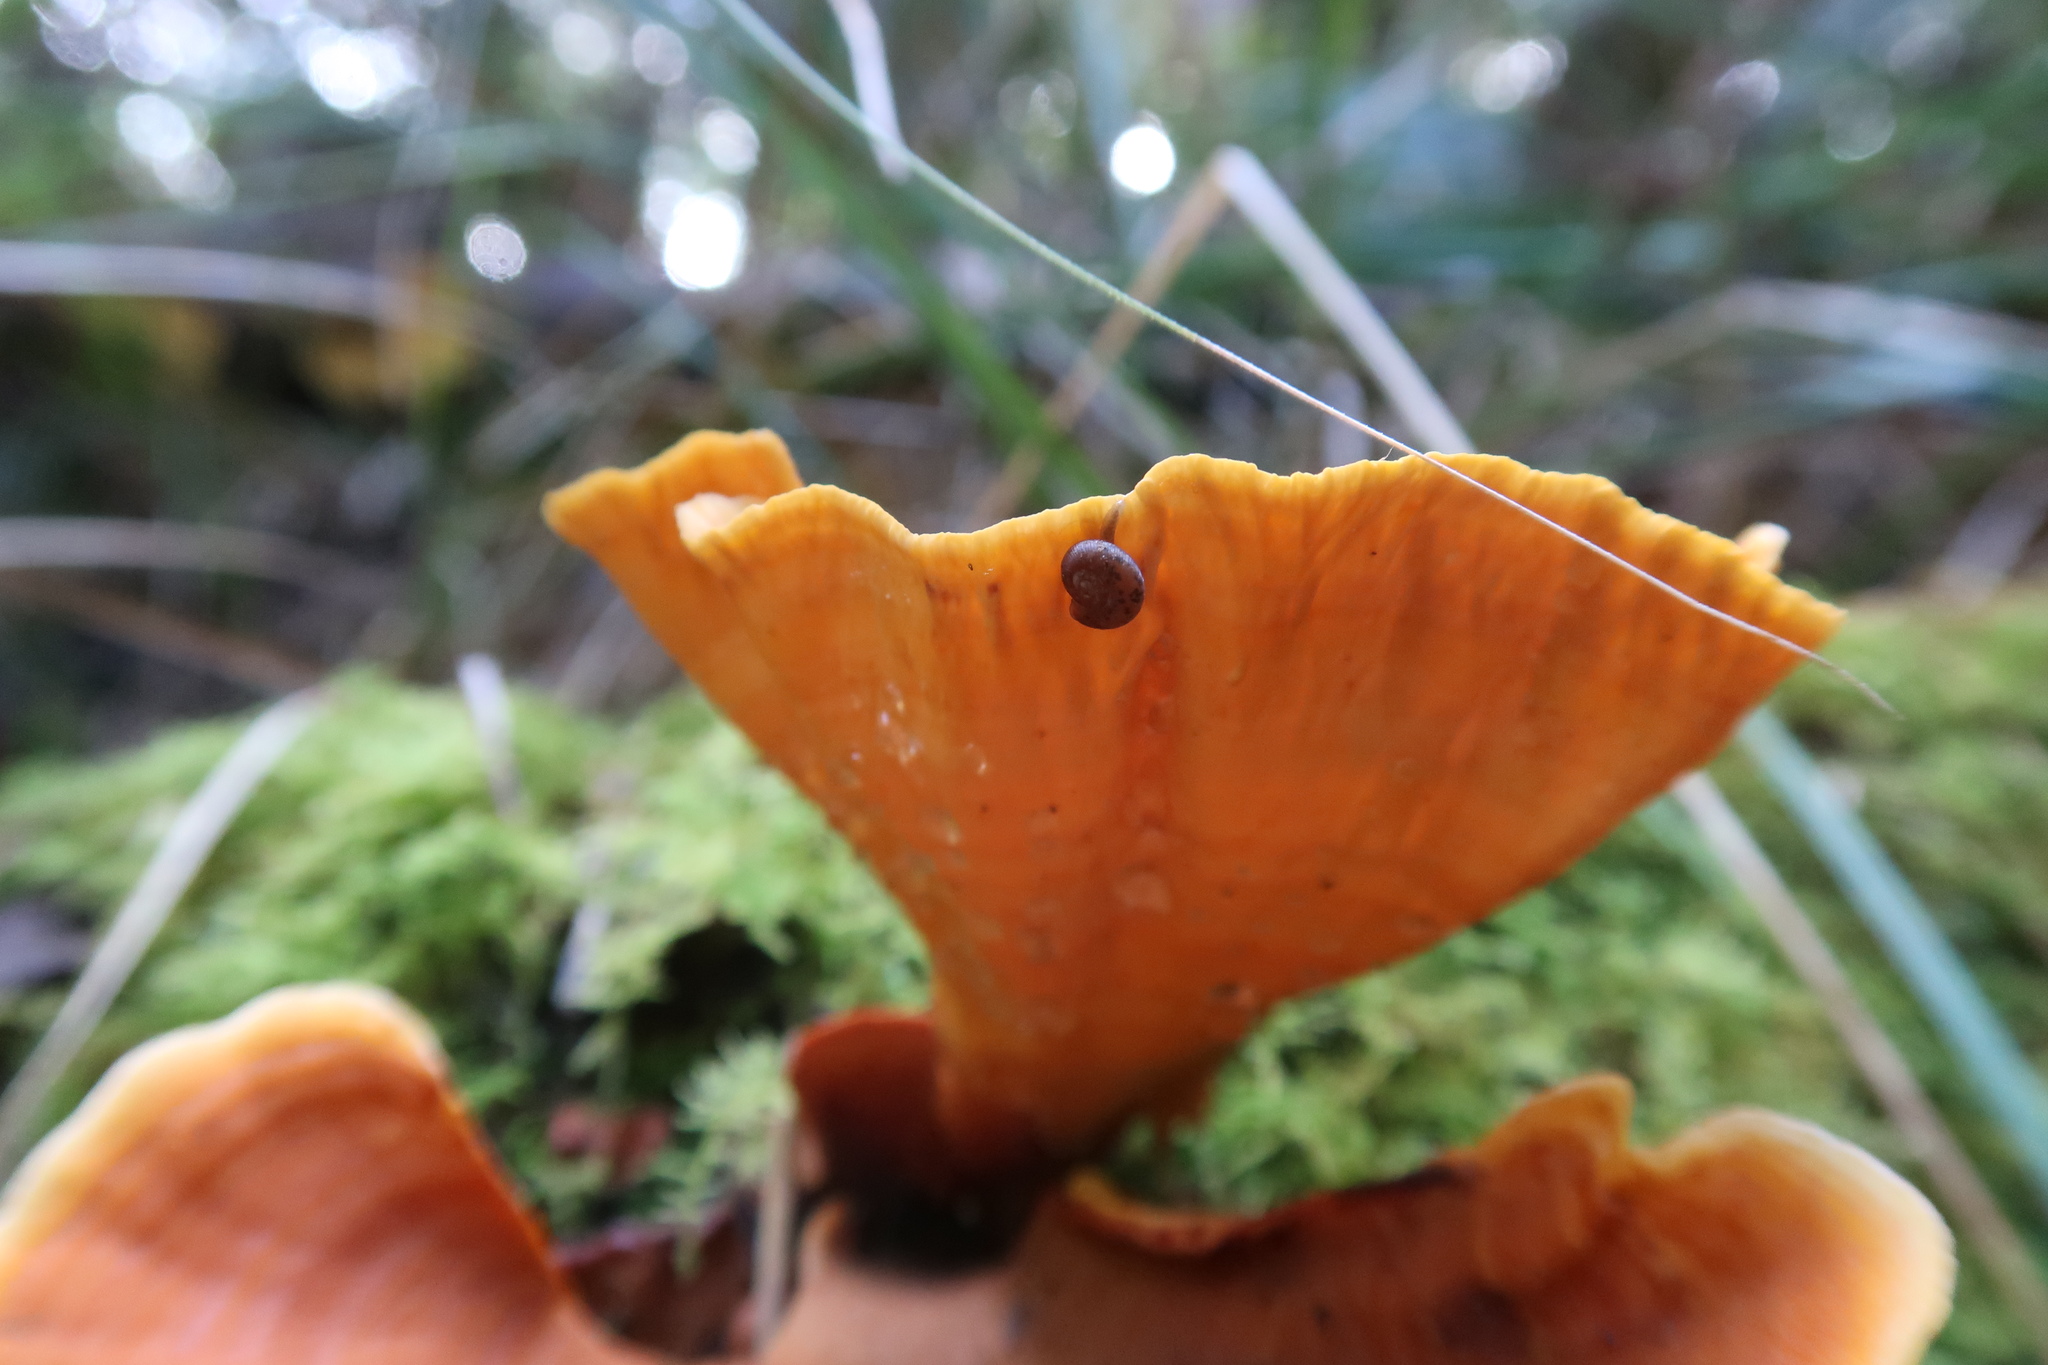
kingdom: Fungi
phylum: Basidiomycota
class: Agaricomycetes
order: Russulales
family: Stereaceae
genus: Stereum
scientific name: Stereum ostrea
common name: False turkeytail
